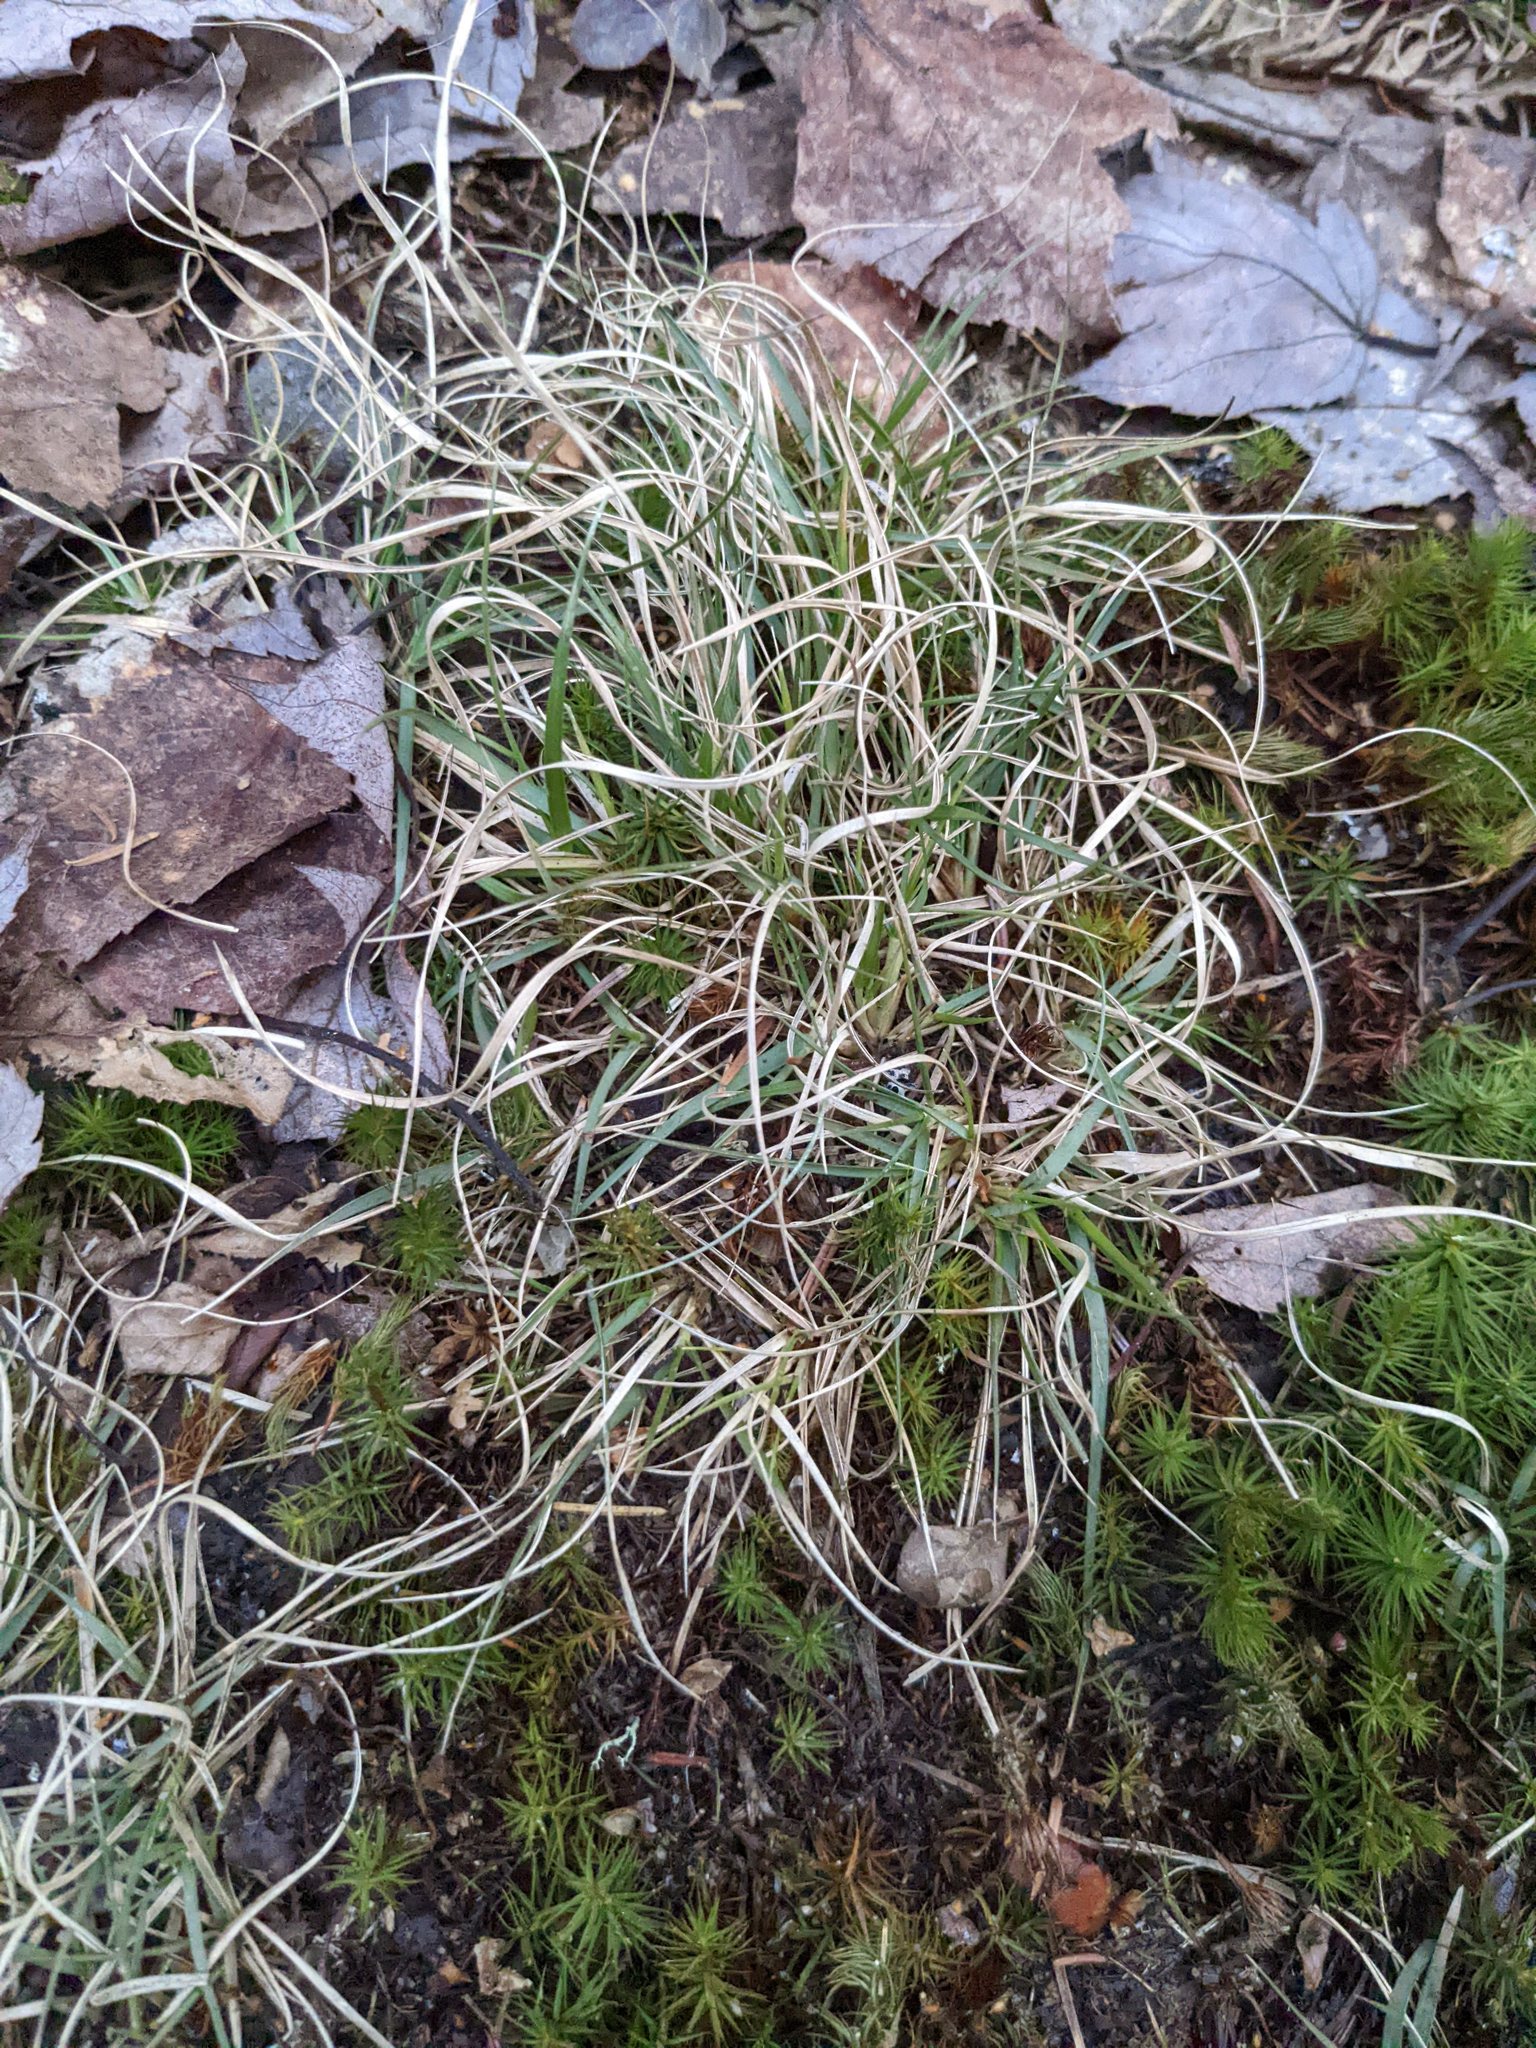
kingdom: Plantae
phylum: Tracheophyta
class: Liliopsida
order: Poales
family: Poaceae
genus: Danthonia
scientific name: Danthonia spicata
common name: Common wild oatgrass
